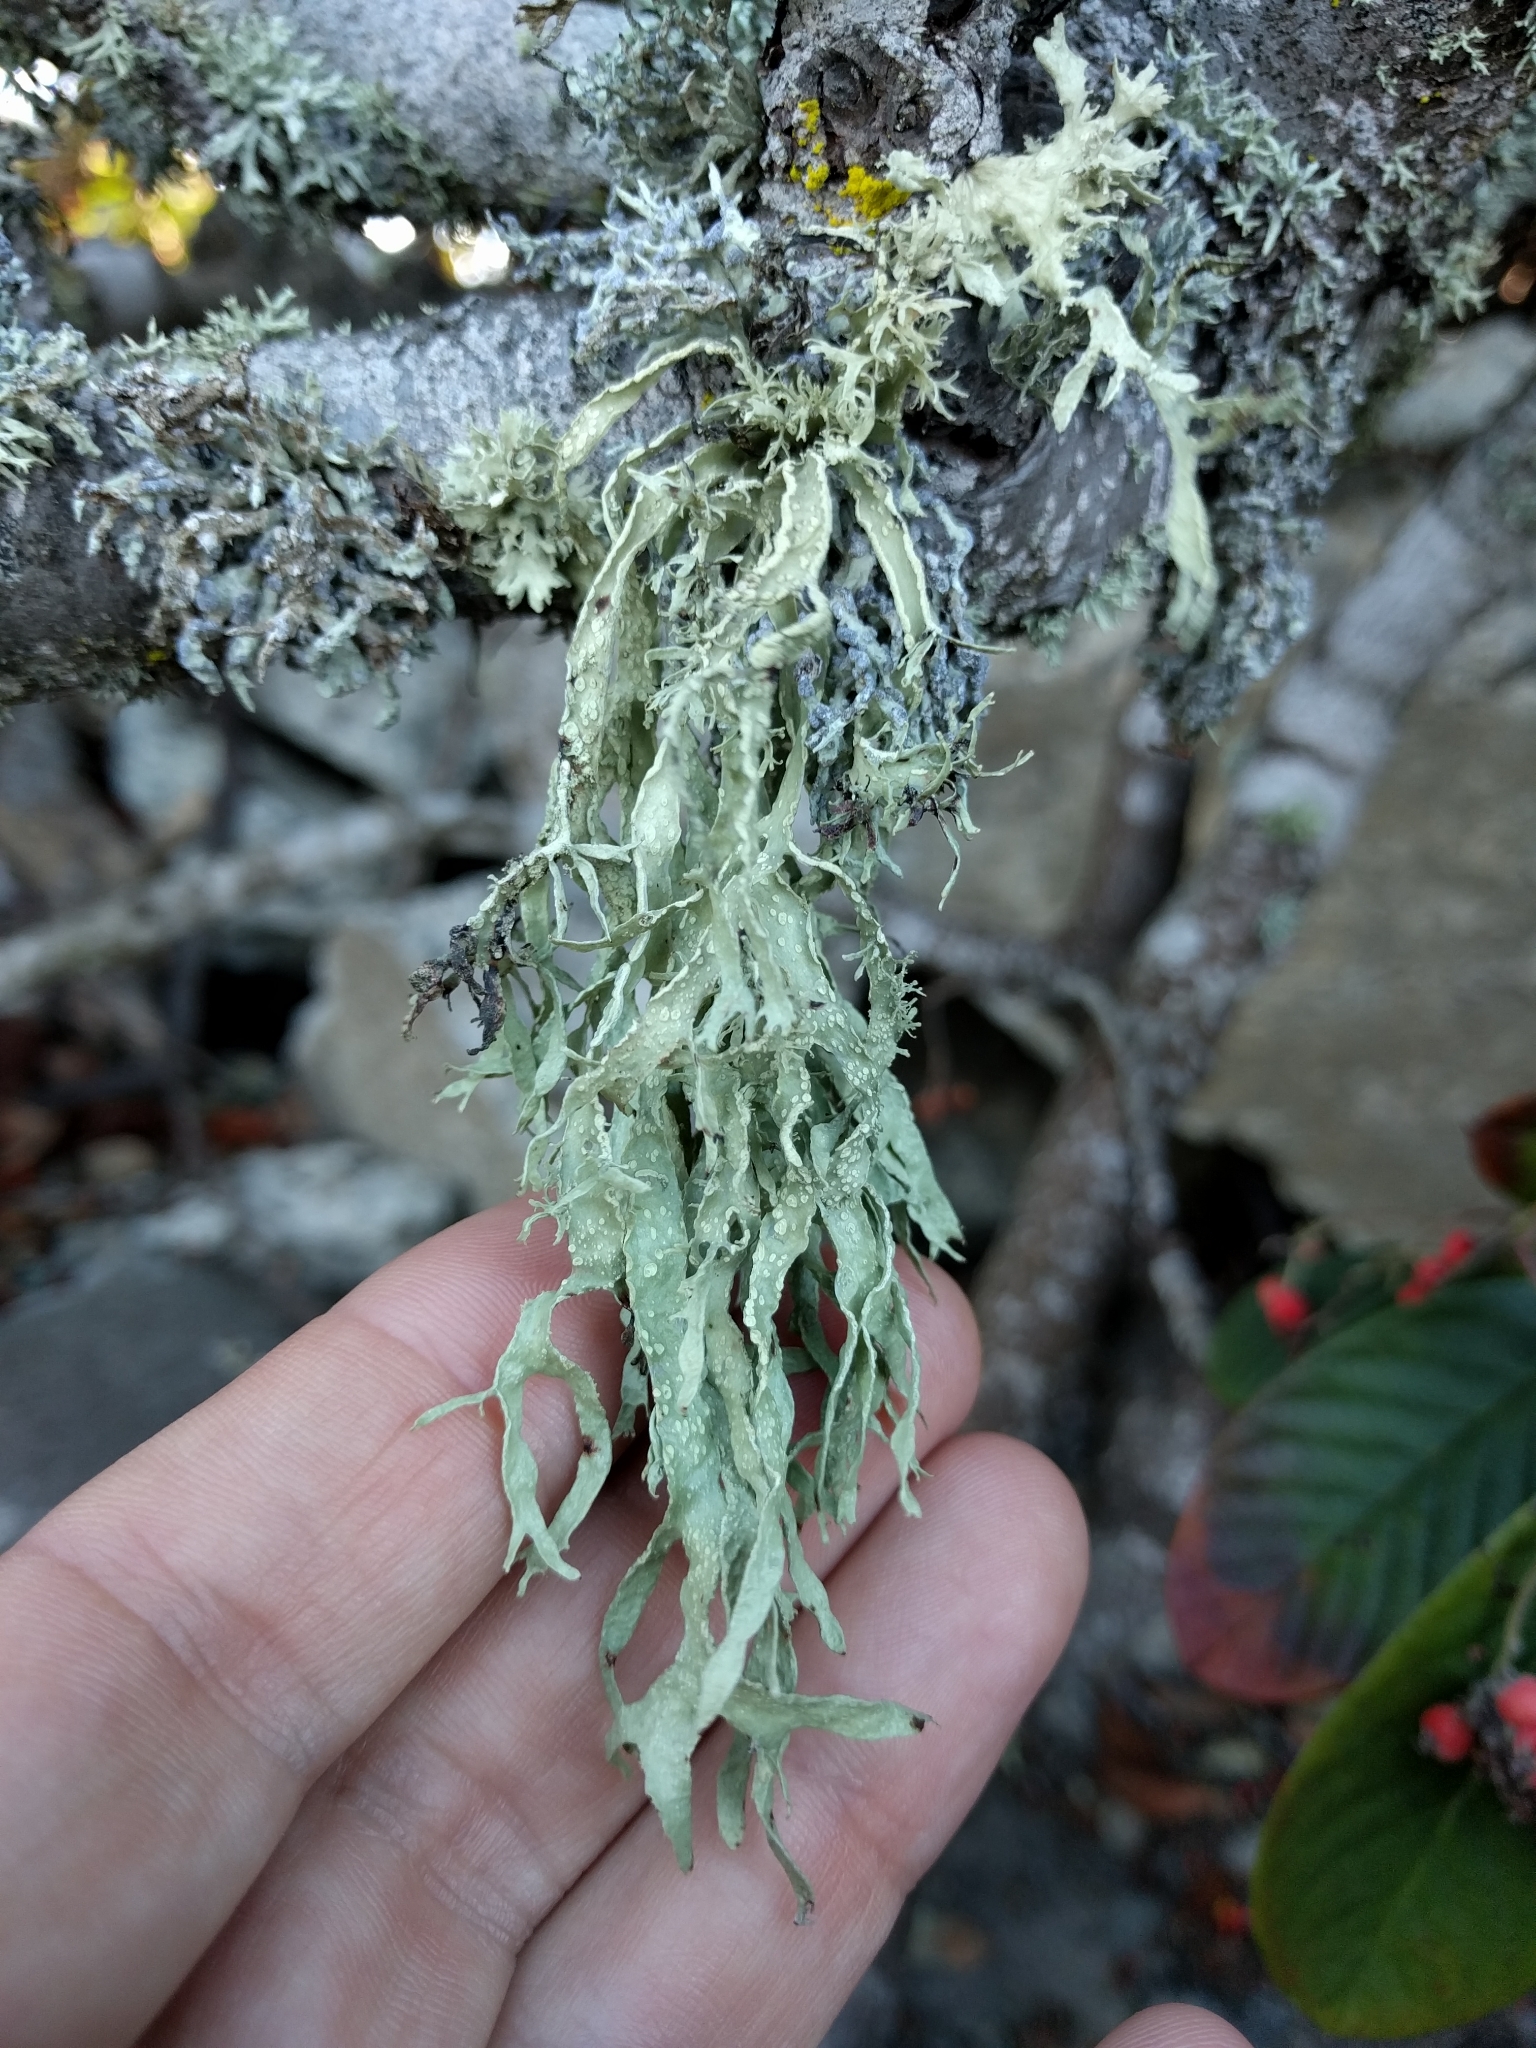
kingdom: Fungi
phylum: Ascomycota
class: Lecanoromycetes
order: Lecanorales
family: Ramalinaceae
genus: Ramalina
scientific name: Ramalina subleptocarpha
